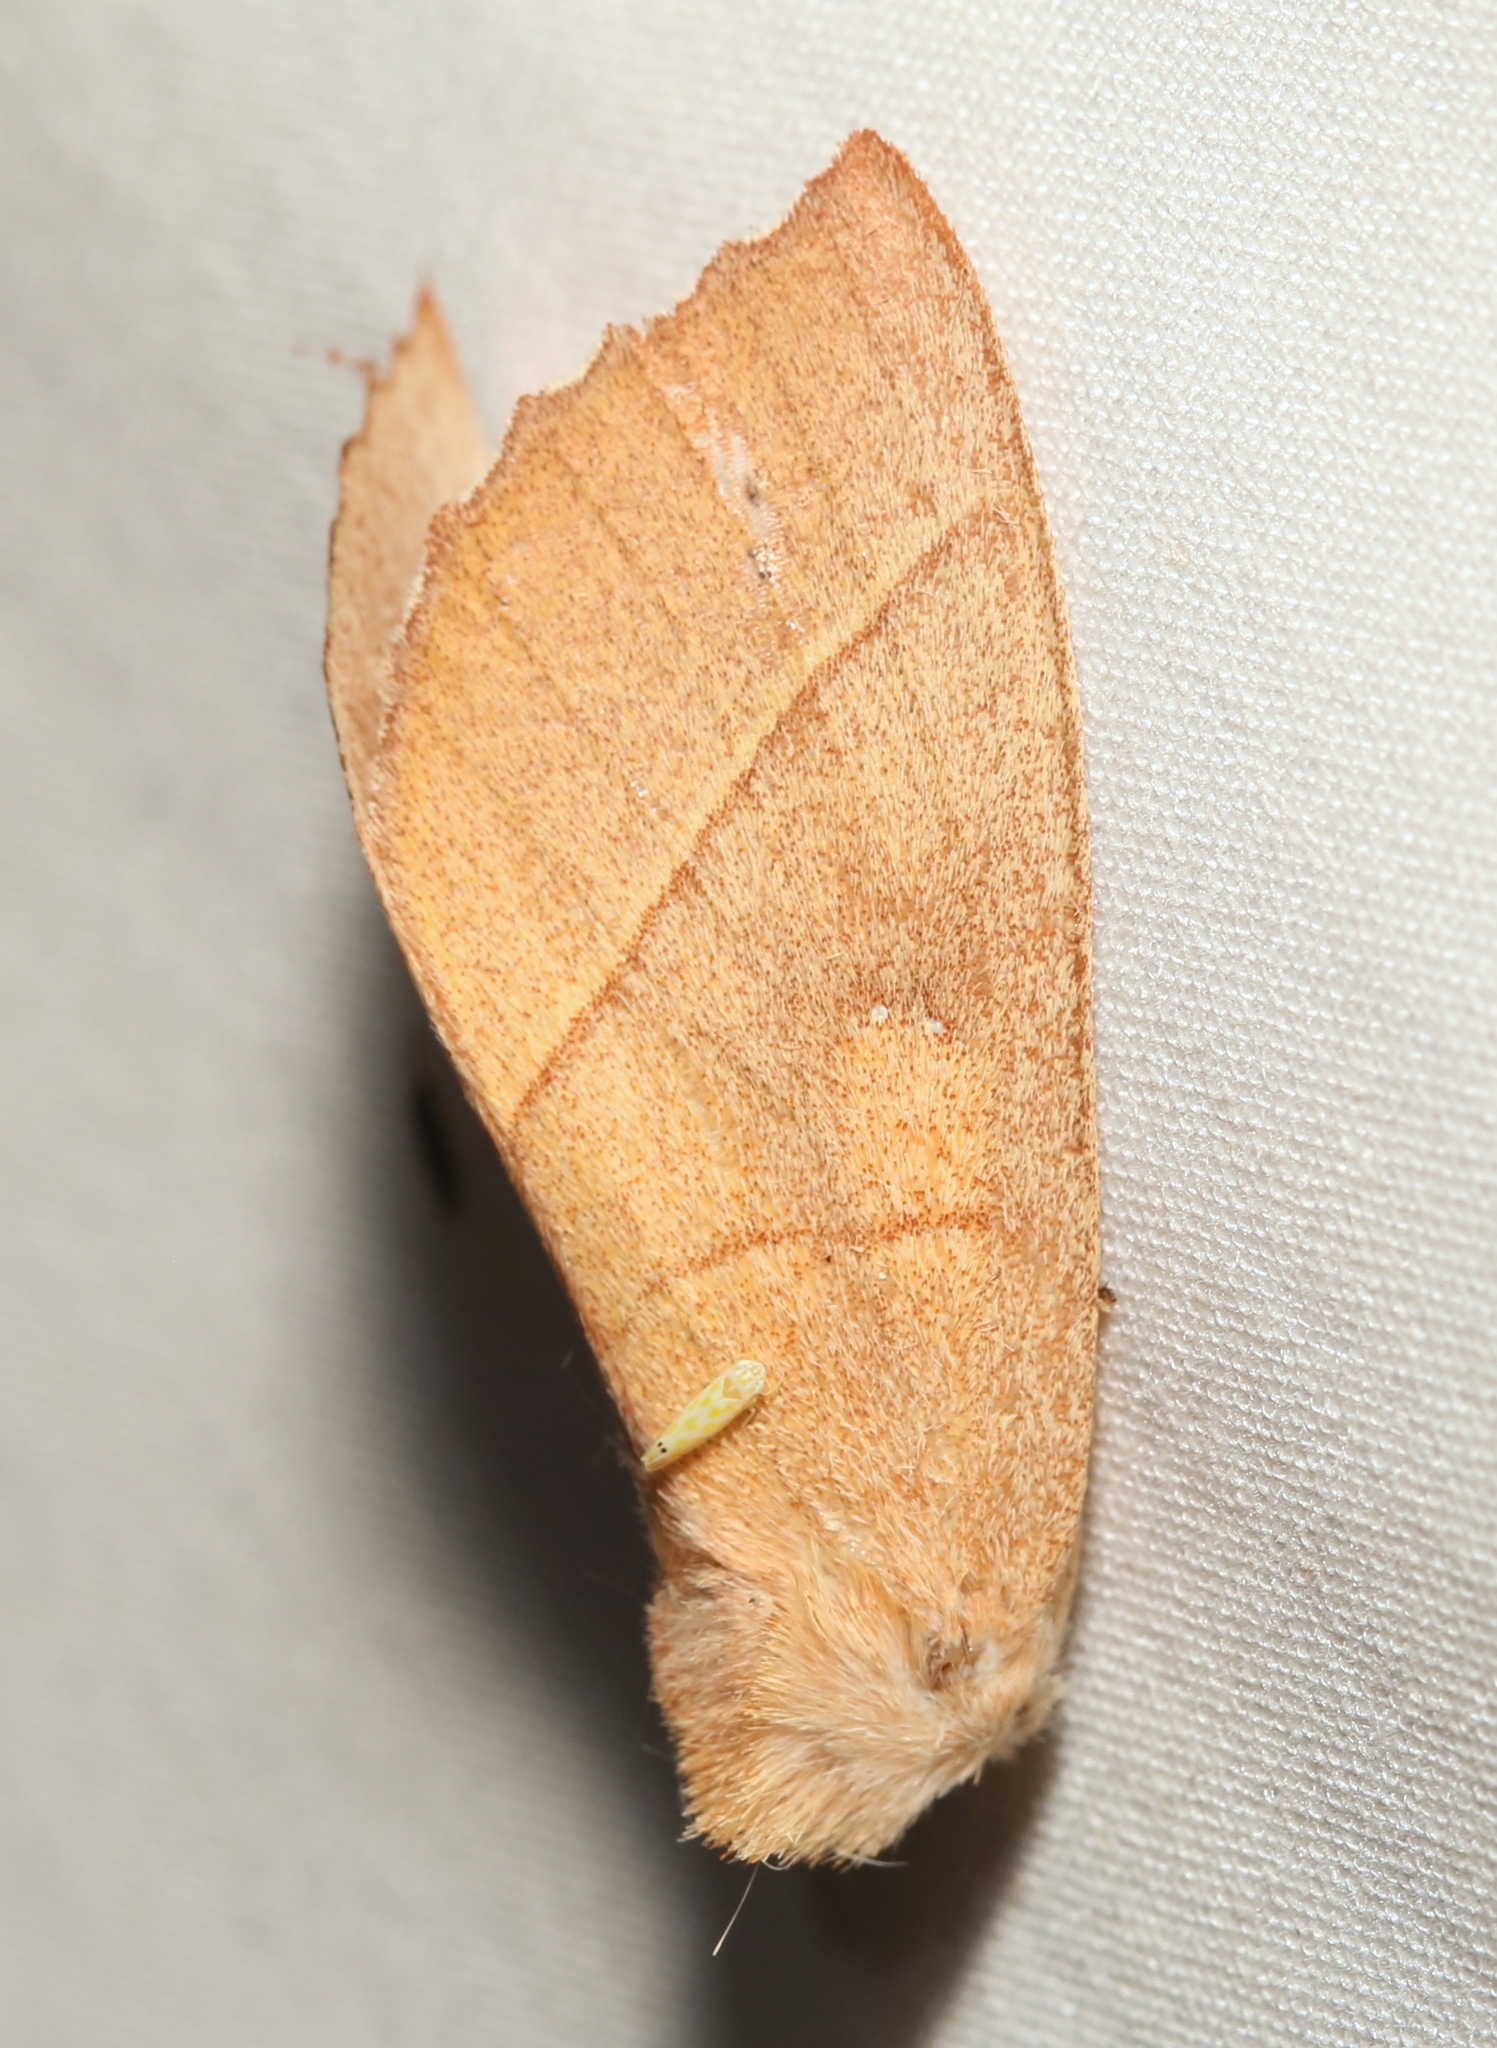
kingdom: Animalia
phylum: Arthropoda
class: Insecta
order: Lepidoptera
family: Notodontidae
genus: Nadata
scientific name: Nadata gibbosa
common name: White-dotted prominent
